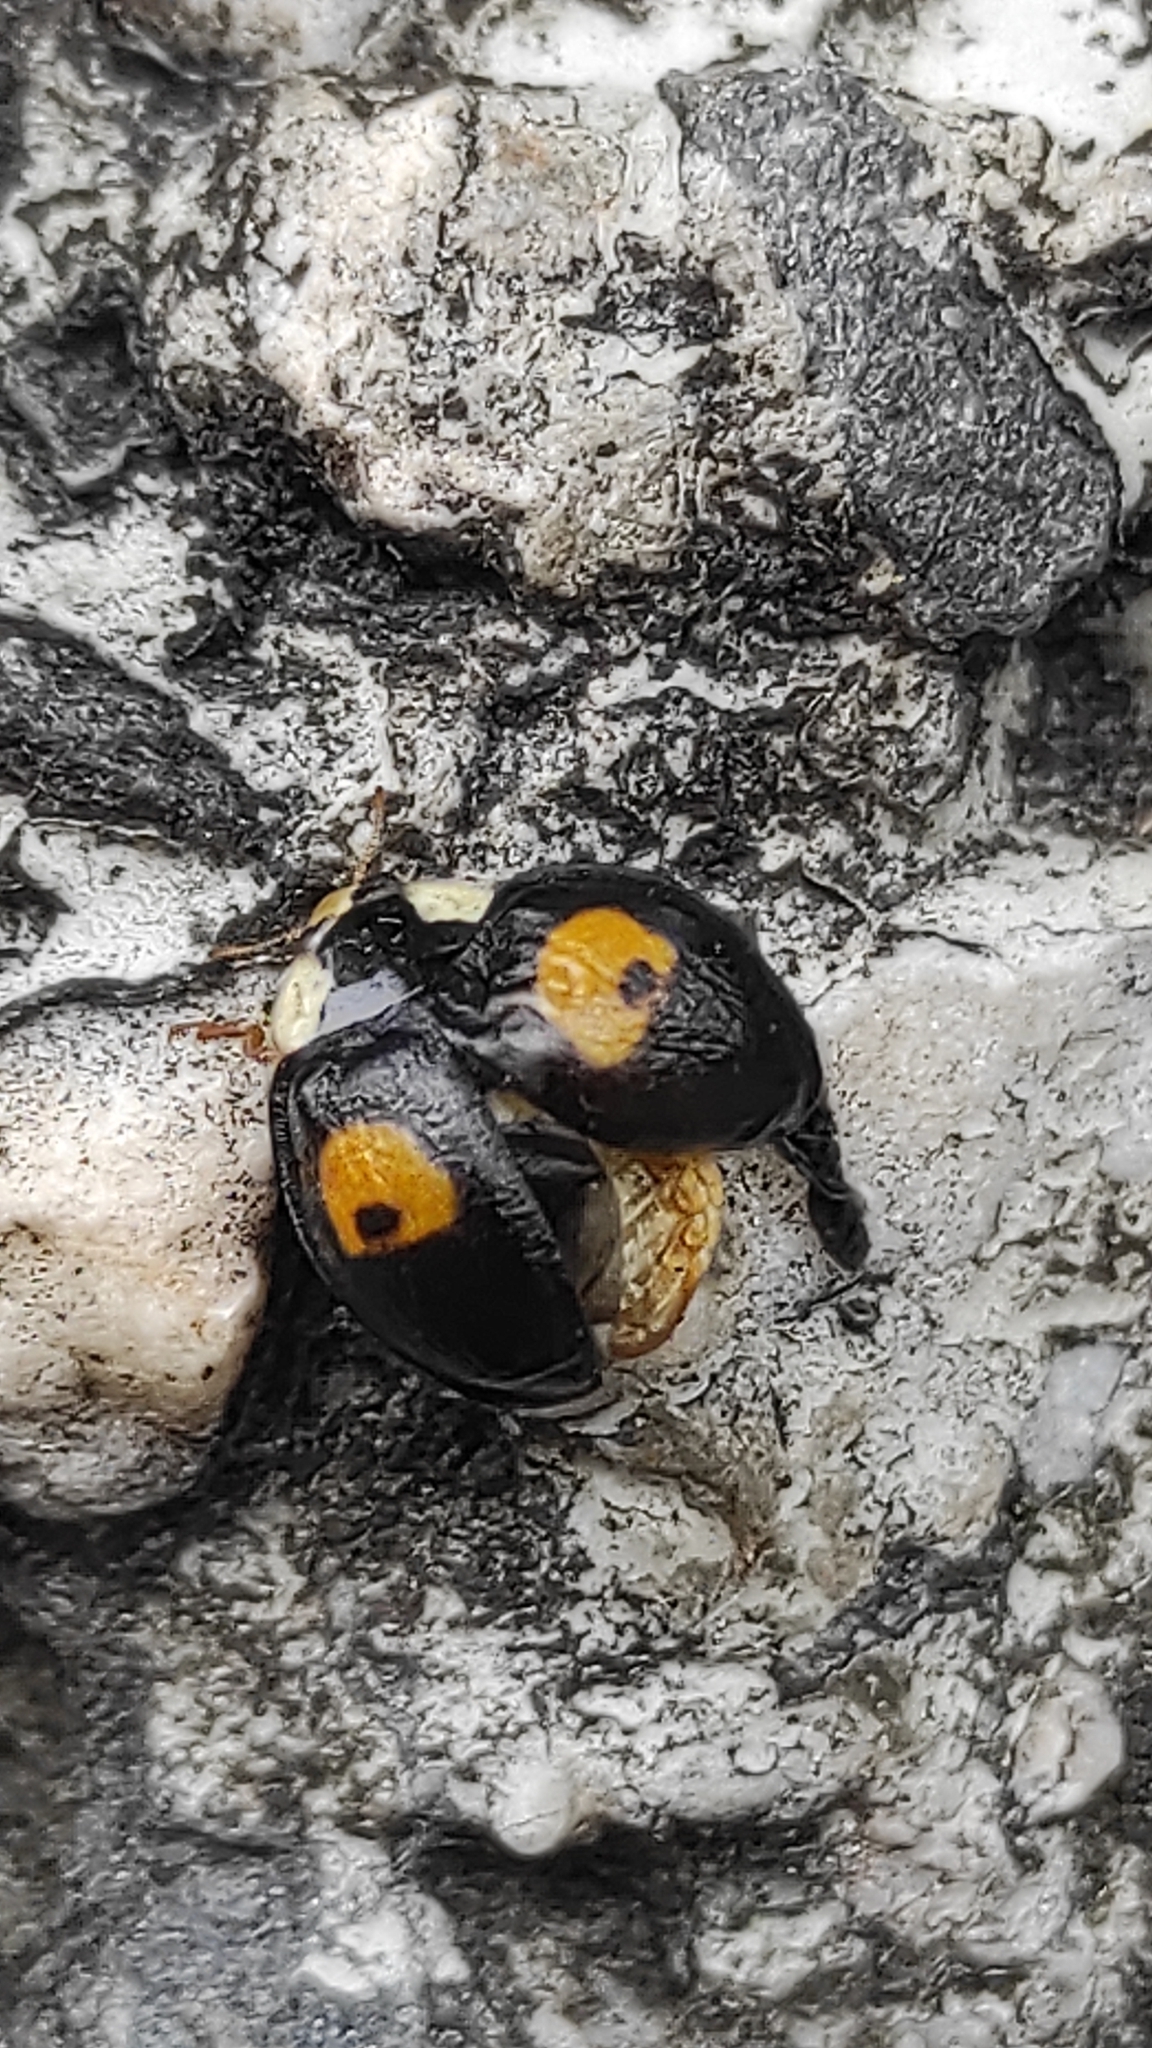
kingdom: Animalia
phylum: Arthropoda
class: Insecta
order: Coleoptera
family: Coccinellidae
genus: Harmonia
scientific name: Harmonia axyridis
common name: Harlequin ladybird
